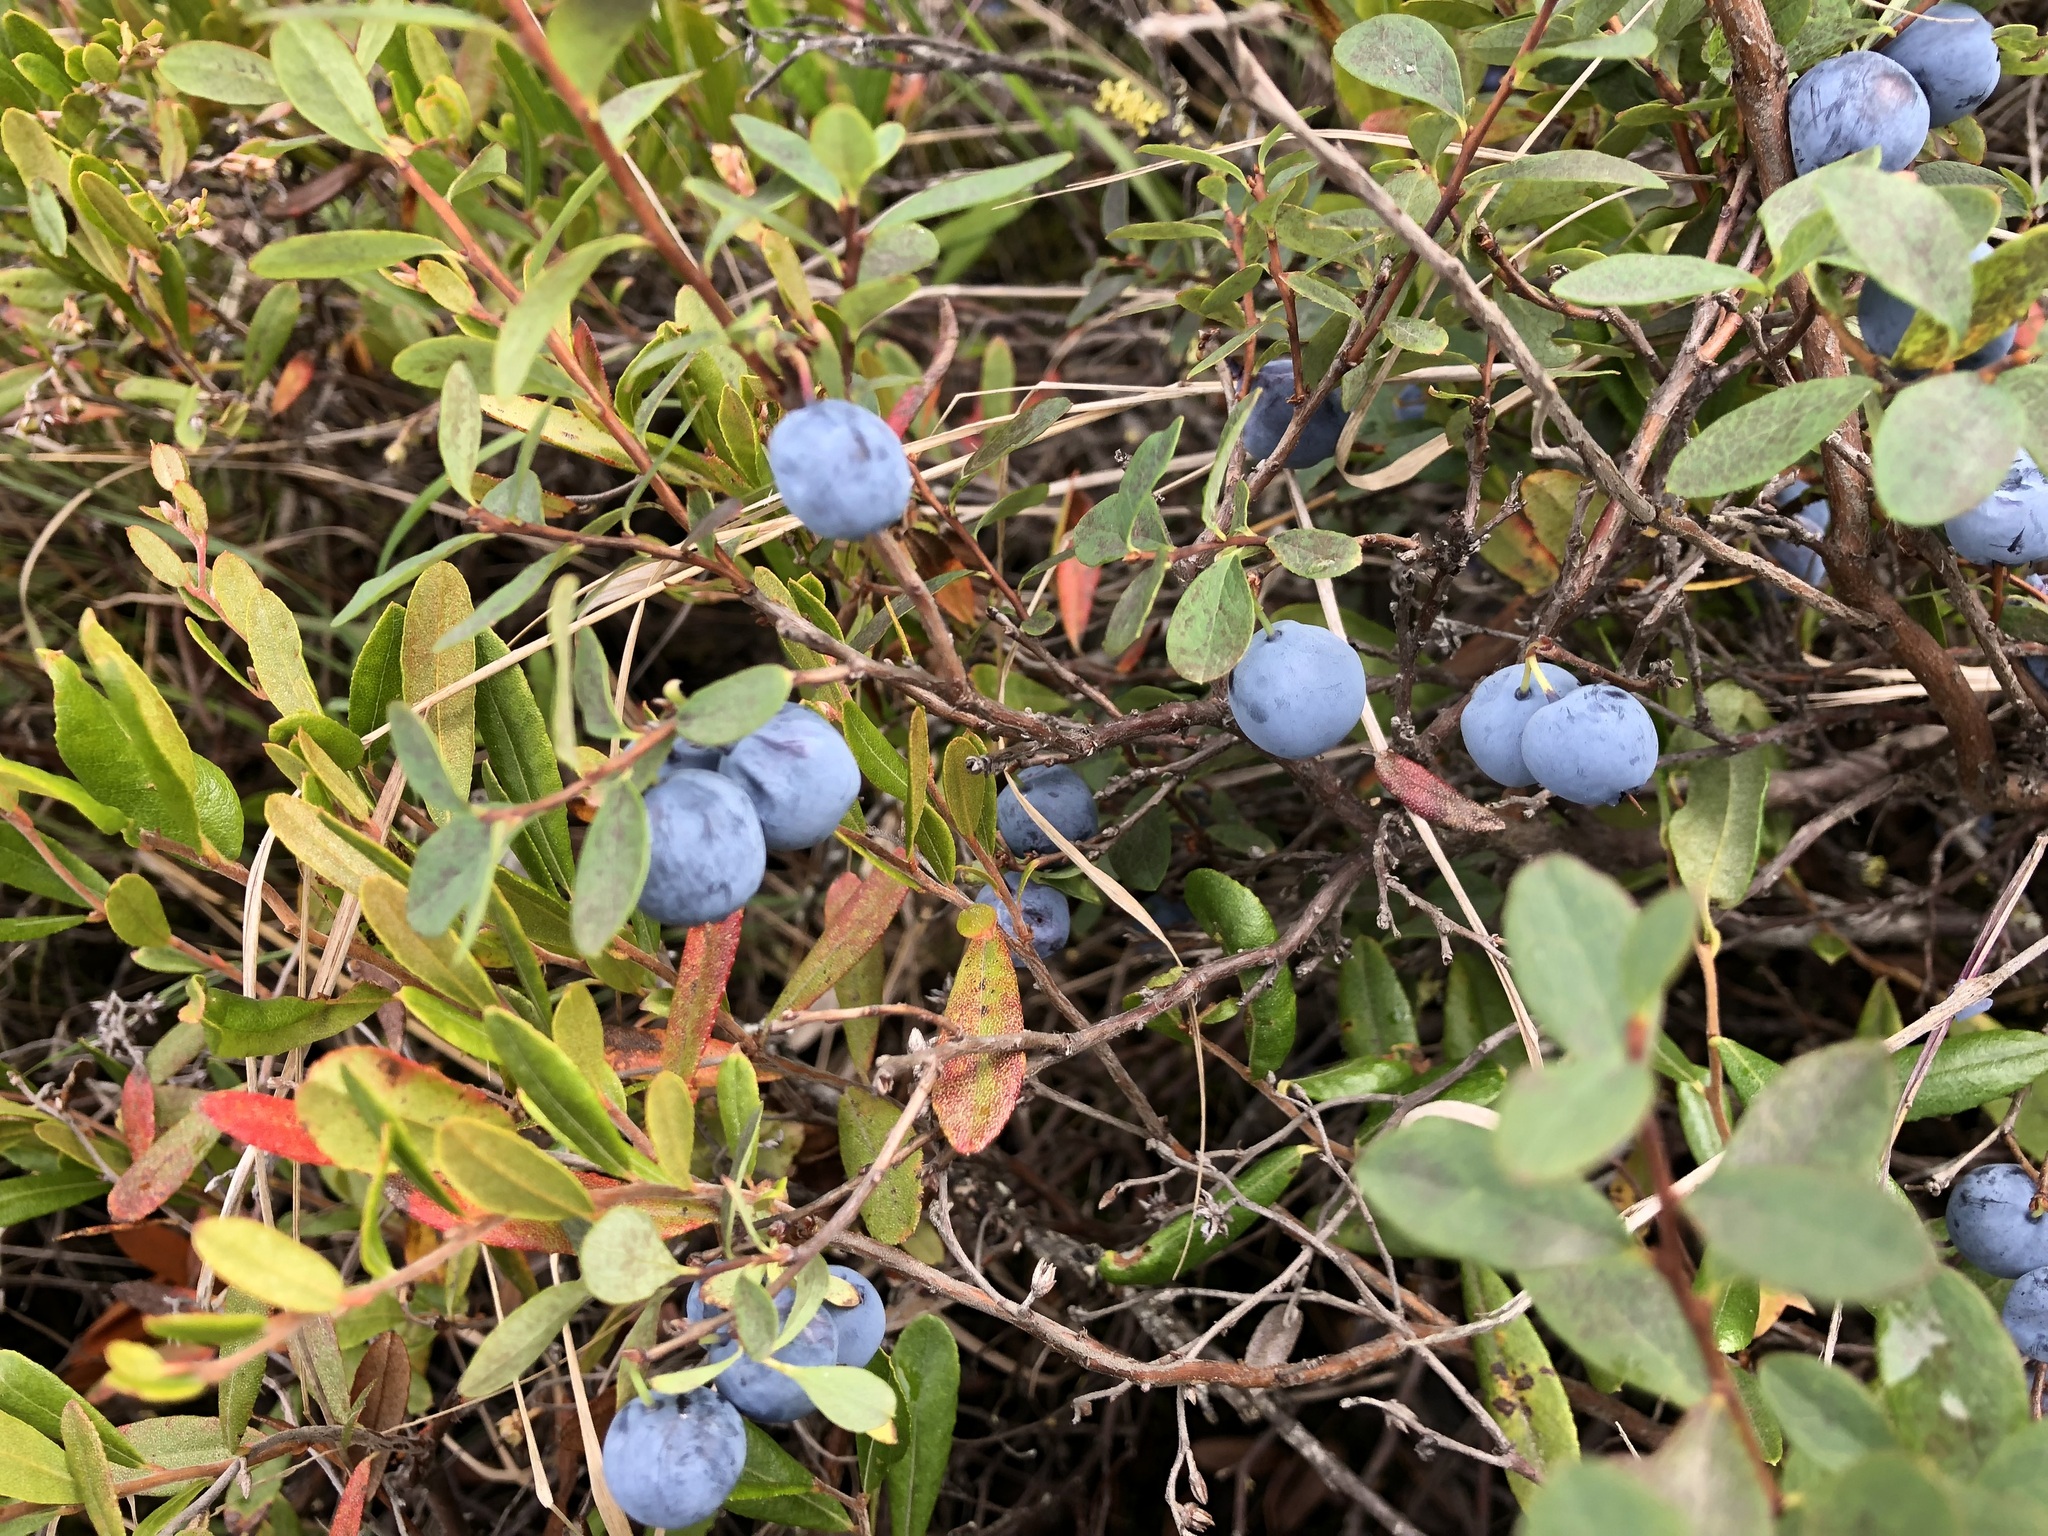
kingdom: Plantae
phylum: Tracheophyta
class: Magnoliopsida
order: Ericales
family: Ericaceae
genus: Vaccinium
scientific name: Vaccinium uliginosum
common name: Bog bilberry
